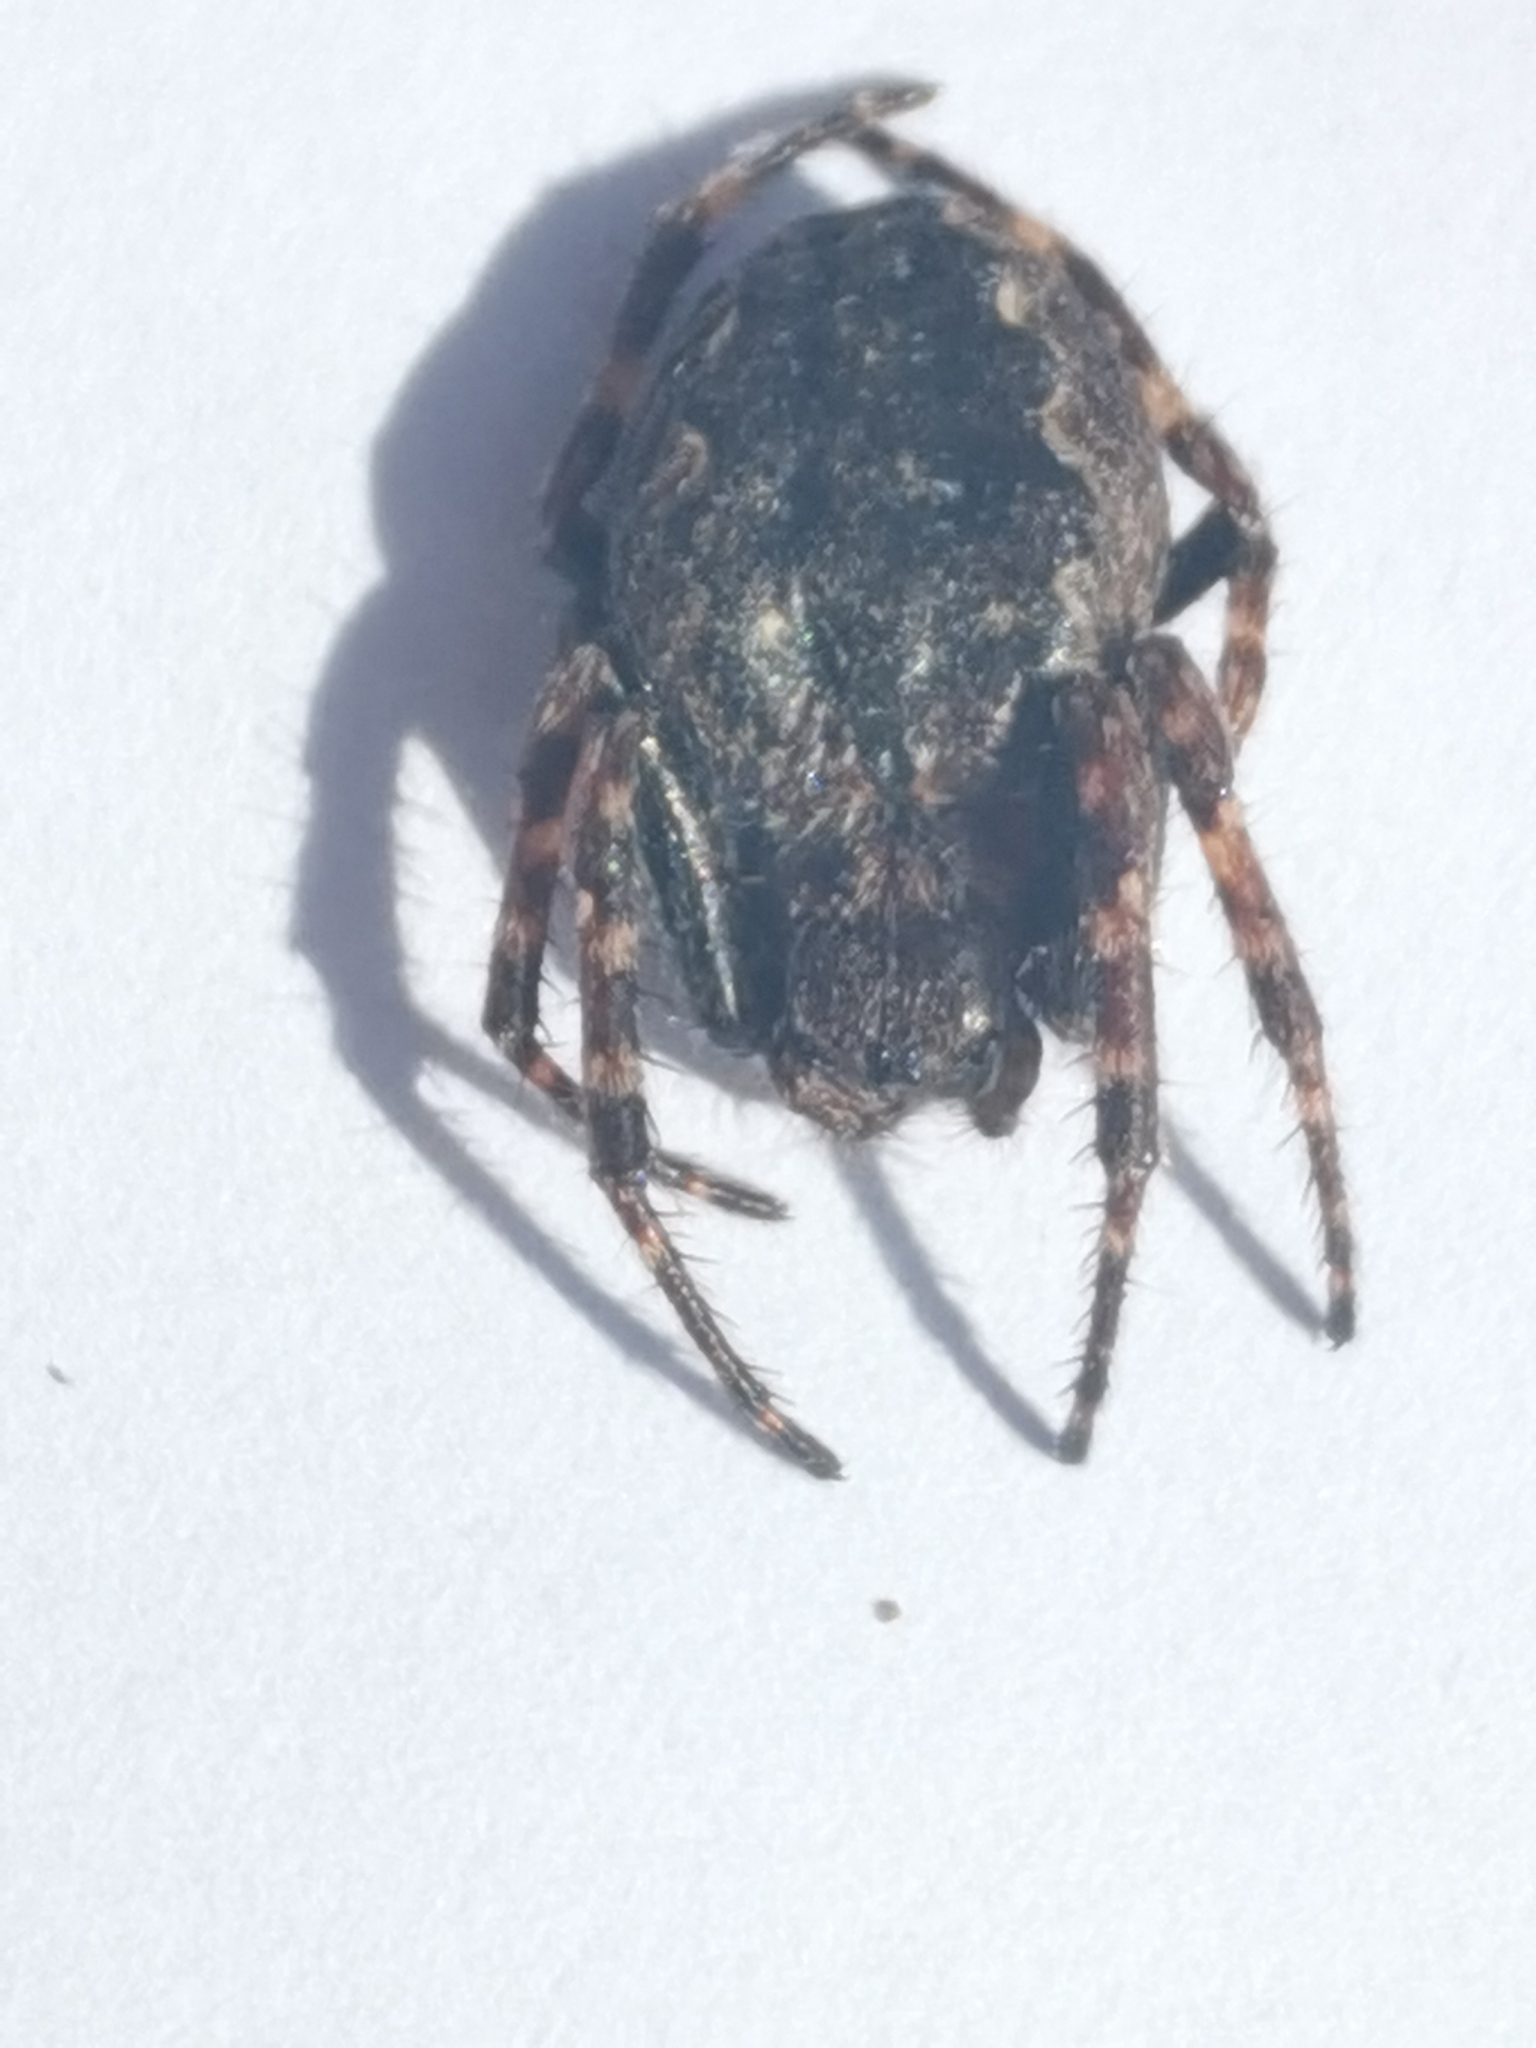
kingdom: Animalia
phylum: Arthropoda
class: Arachnida
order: Araneae
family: Araneidae
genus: Nuctenea
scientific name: Nuctenea umbratica
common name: Toad spider
